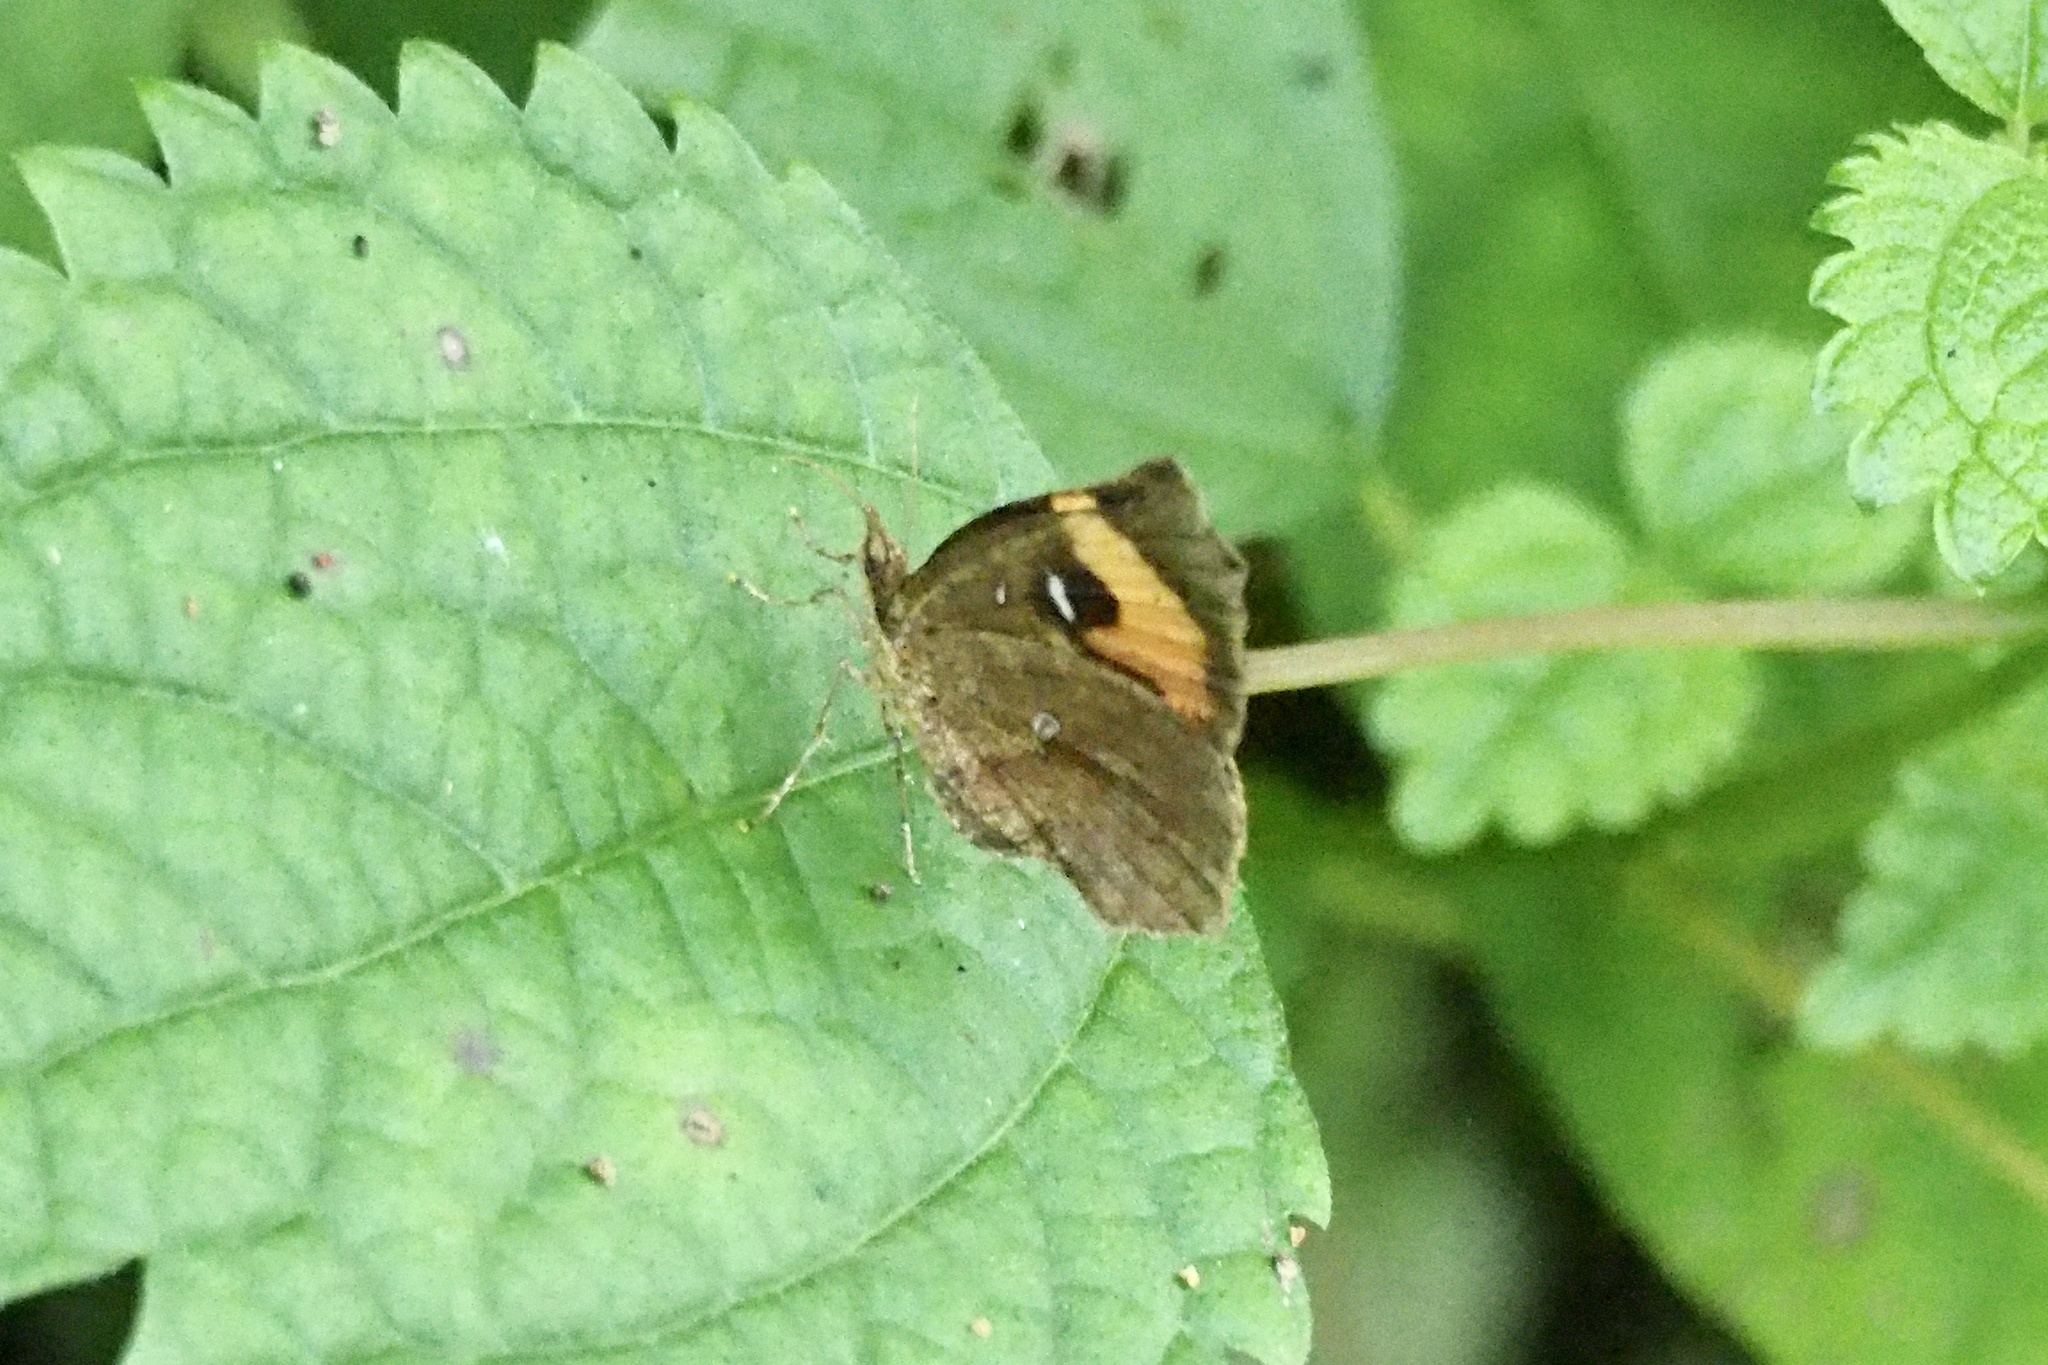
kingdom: Animalia
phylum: Arthropoda
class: Insecta
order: Lepidoptera
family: Callidulidae
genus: Pterodecta
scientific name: Pterodecta felderi
